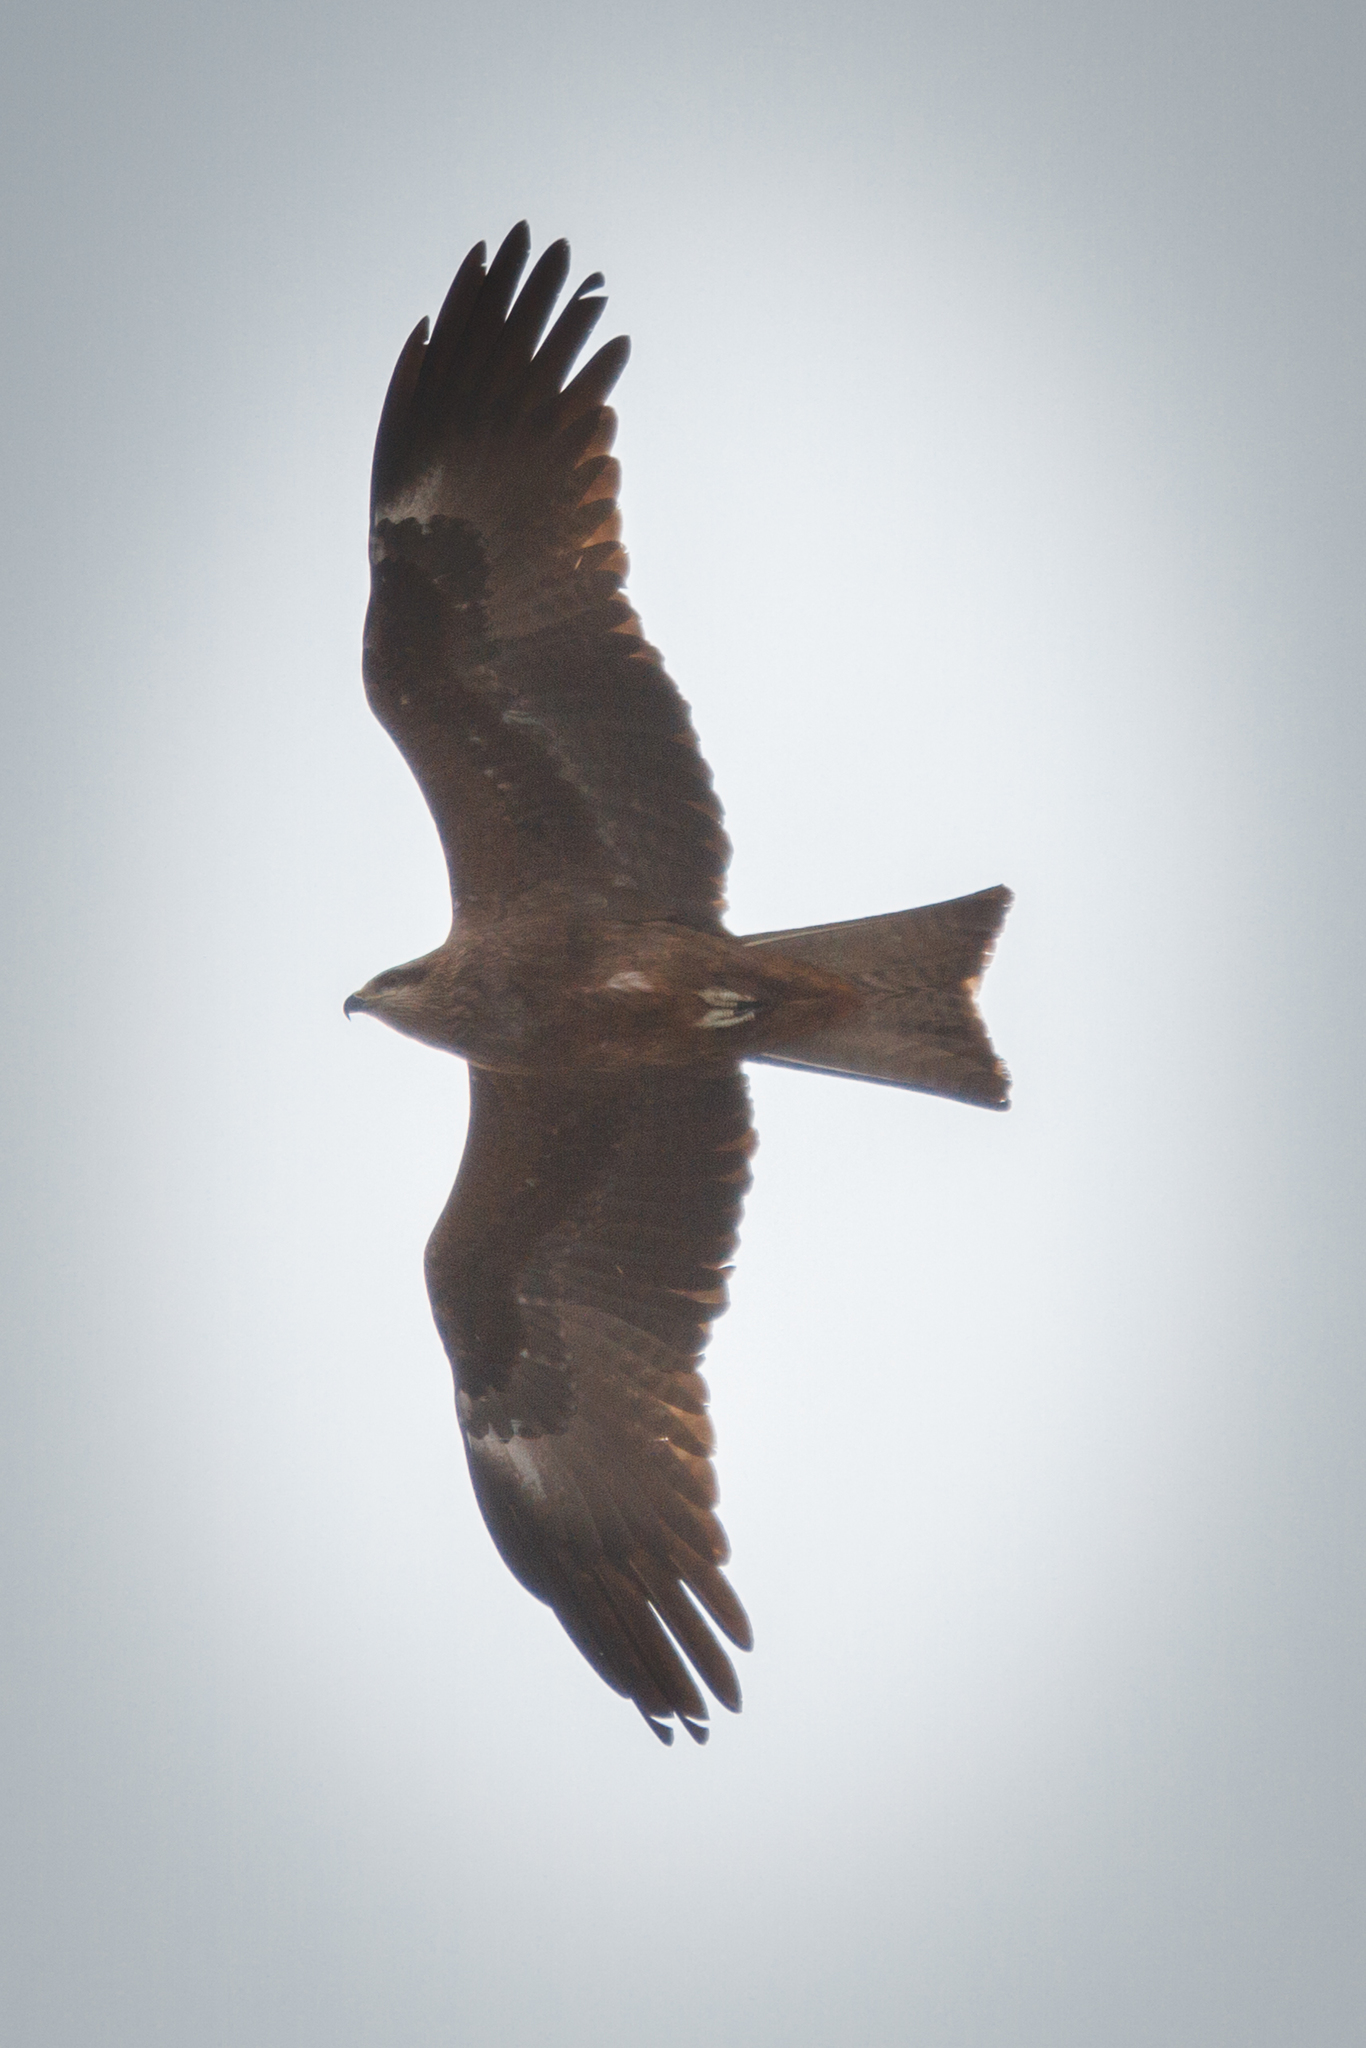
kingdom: Animalia
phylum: Chordata
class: Aves
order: Accipitriformes
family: Accipitridae
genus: Milvus
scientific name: Milvus migrans
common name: Black kite
